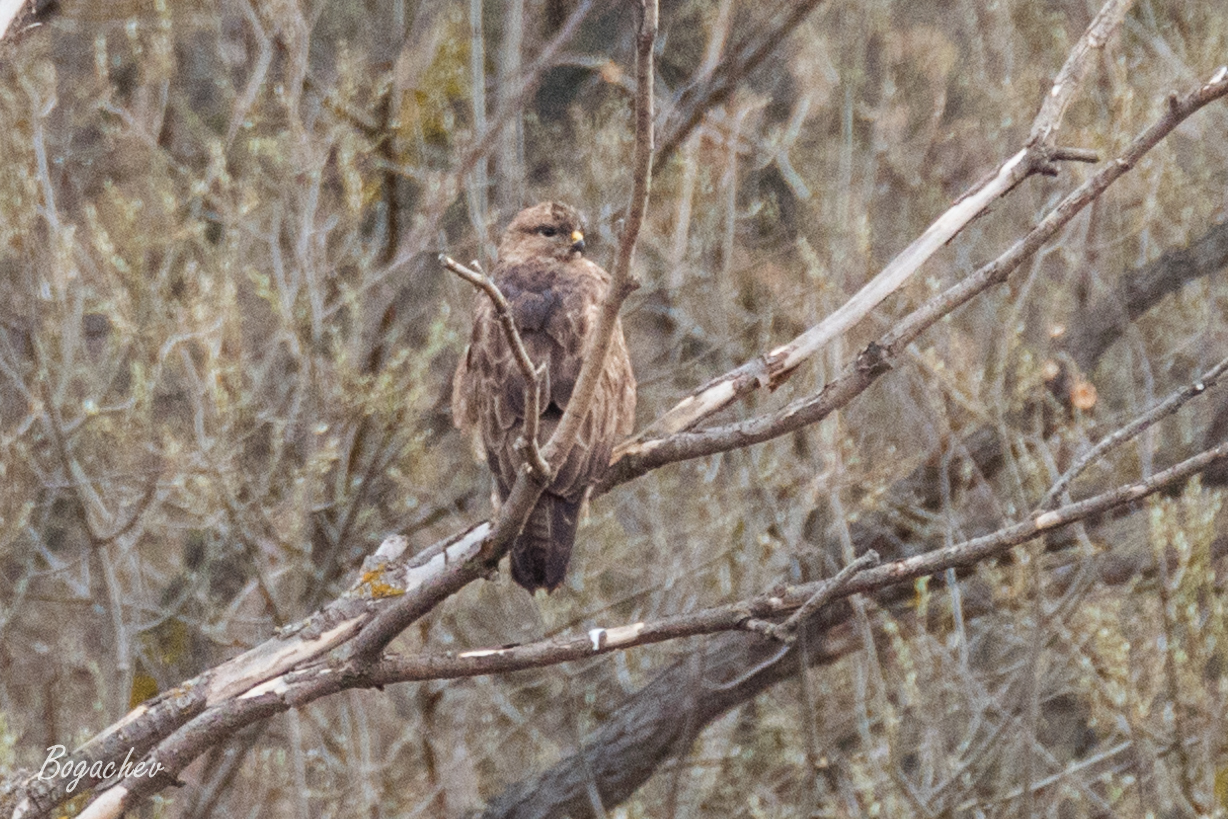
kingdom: Animalia
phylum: Chordata
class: Aves
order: Accipitriformes
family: Accipitridae
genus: Buteo
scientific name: Buteo buteo
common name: Common buzzard
